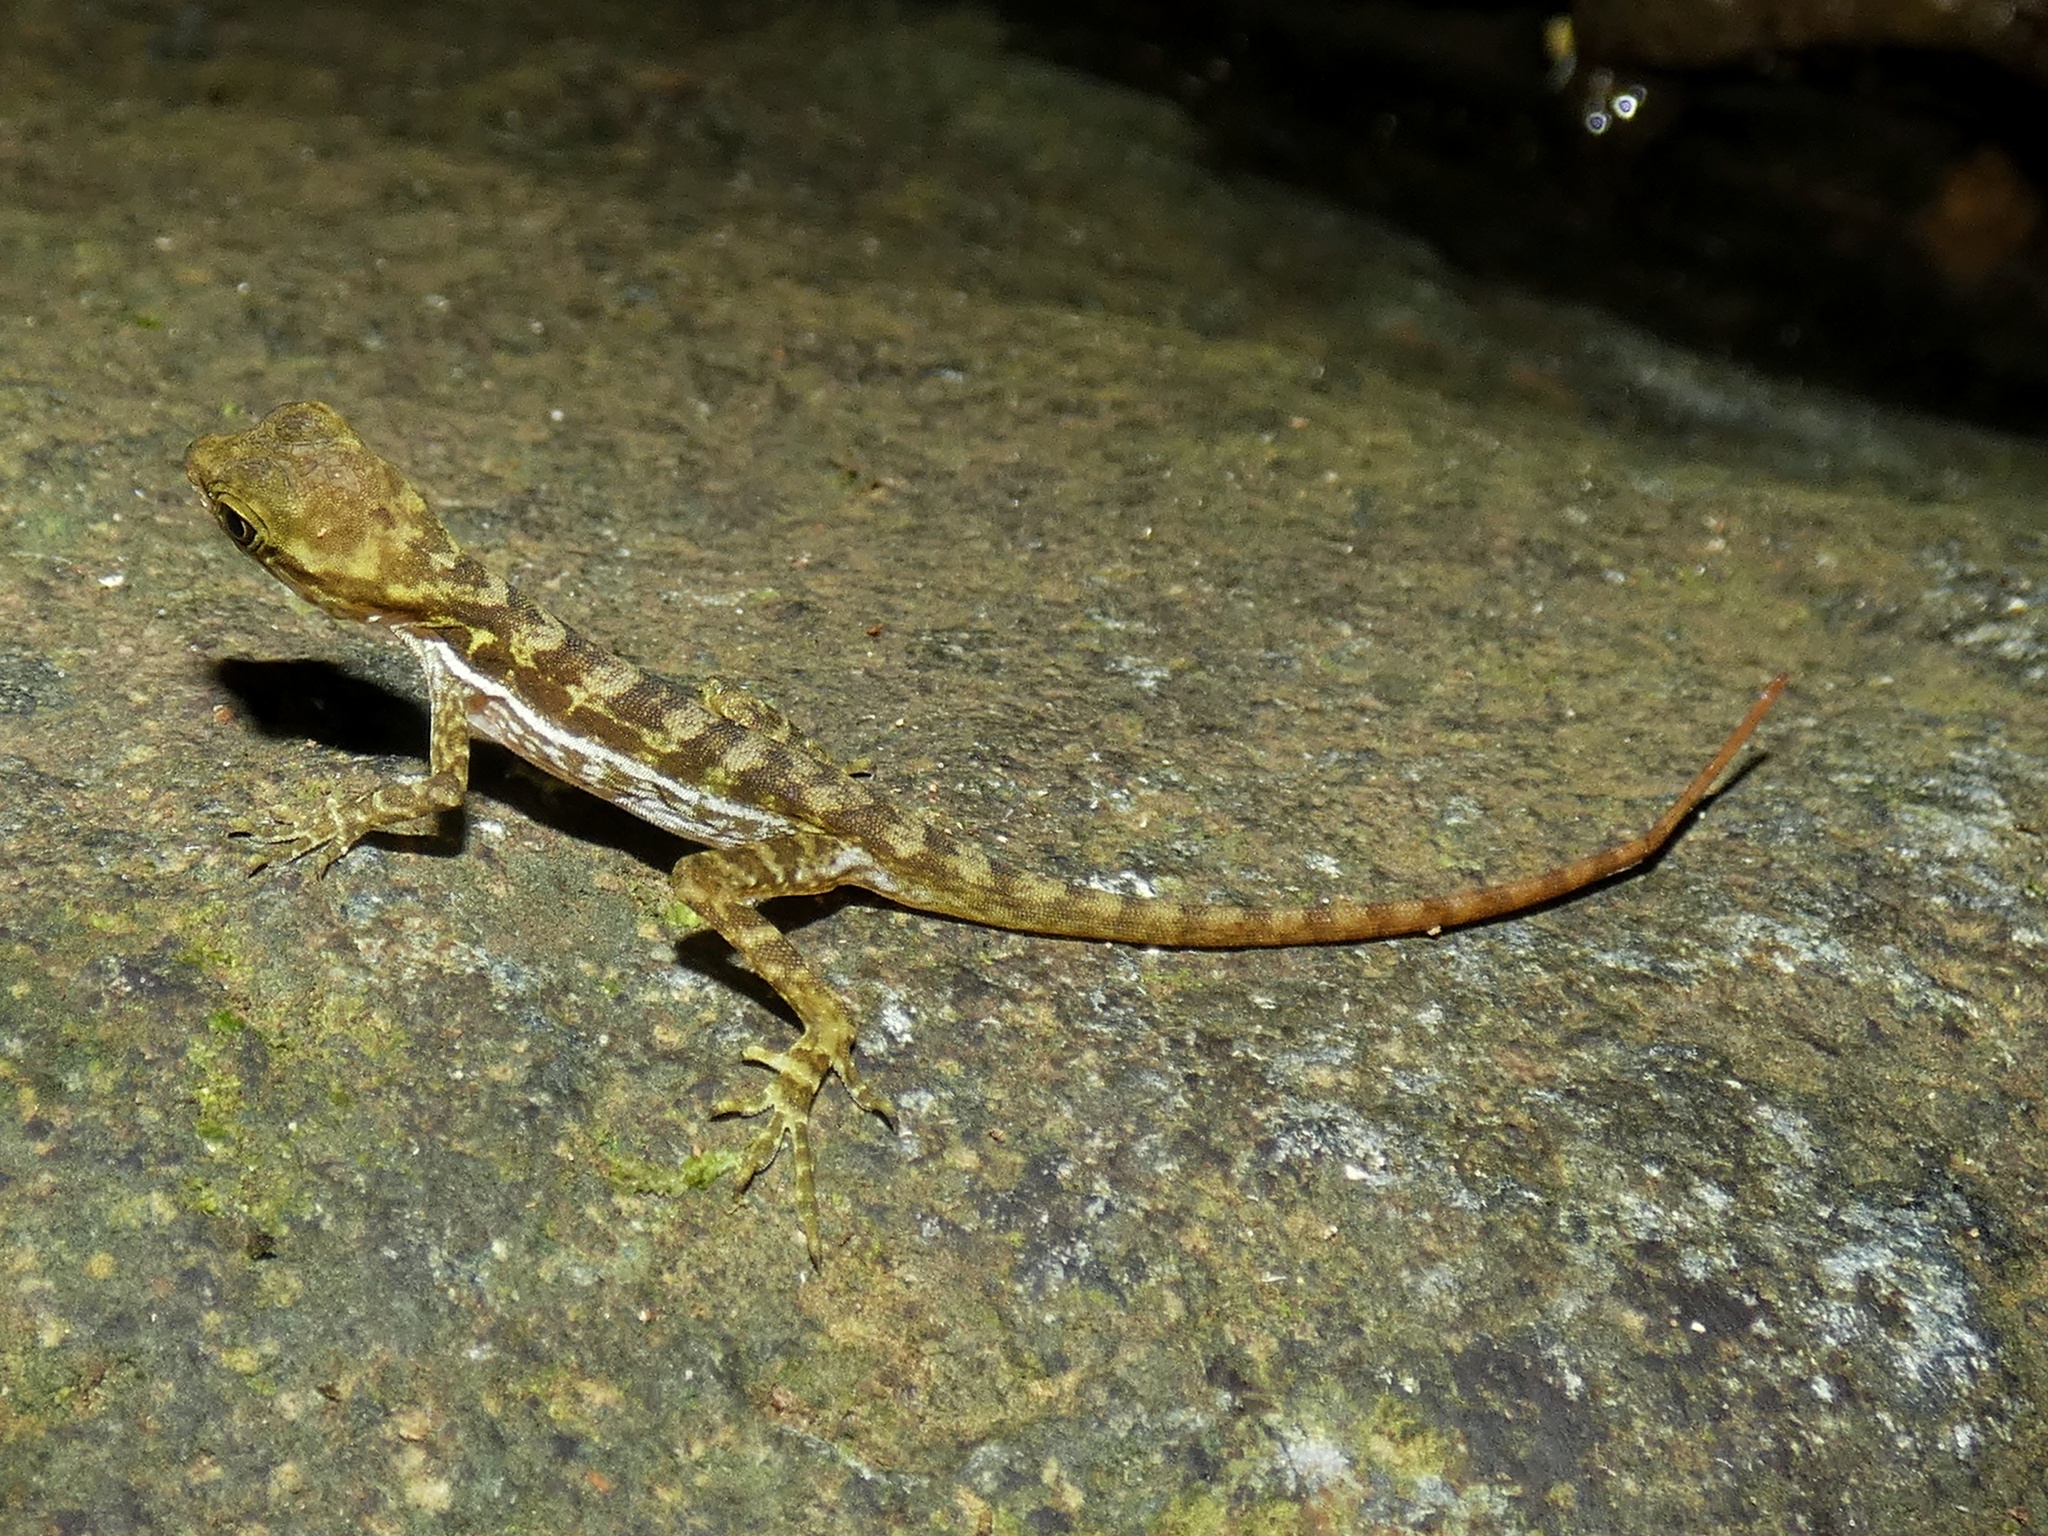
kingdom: Animalia
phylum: Chordata
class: Squamata
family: Dactyloidae
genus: Anolis
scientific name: Anolis lionotus
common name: Lion anole
